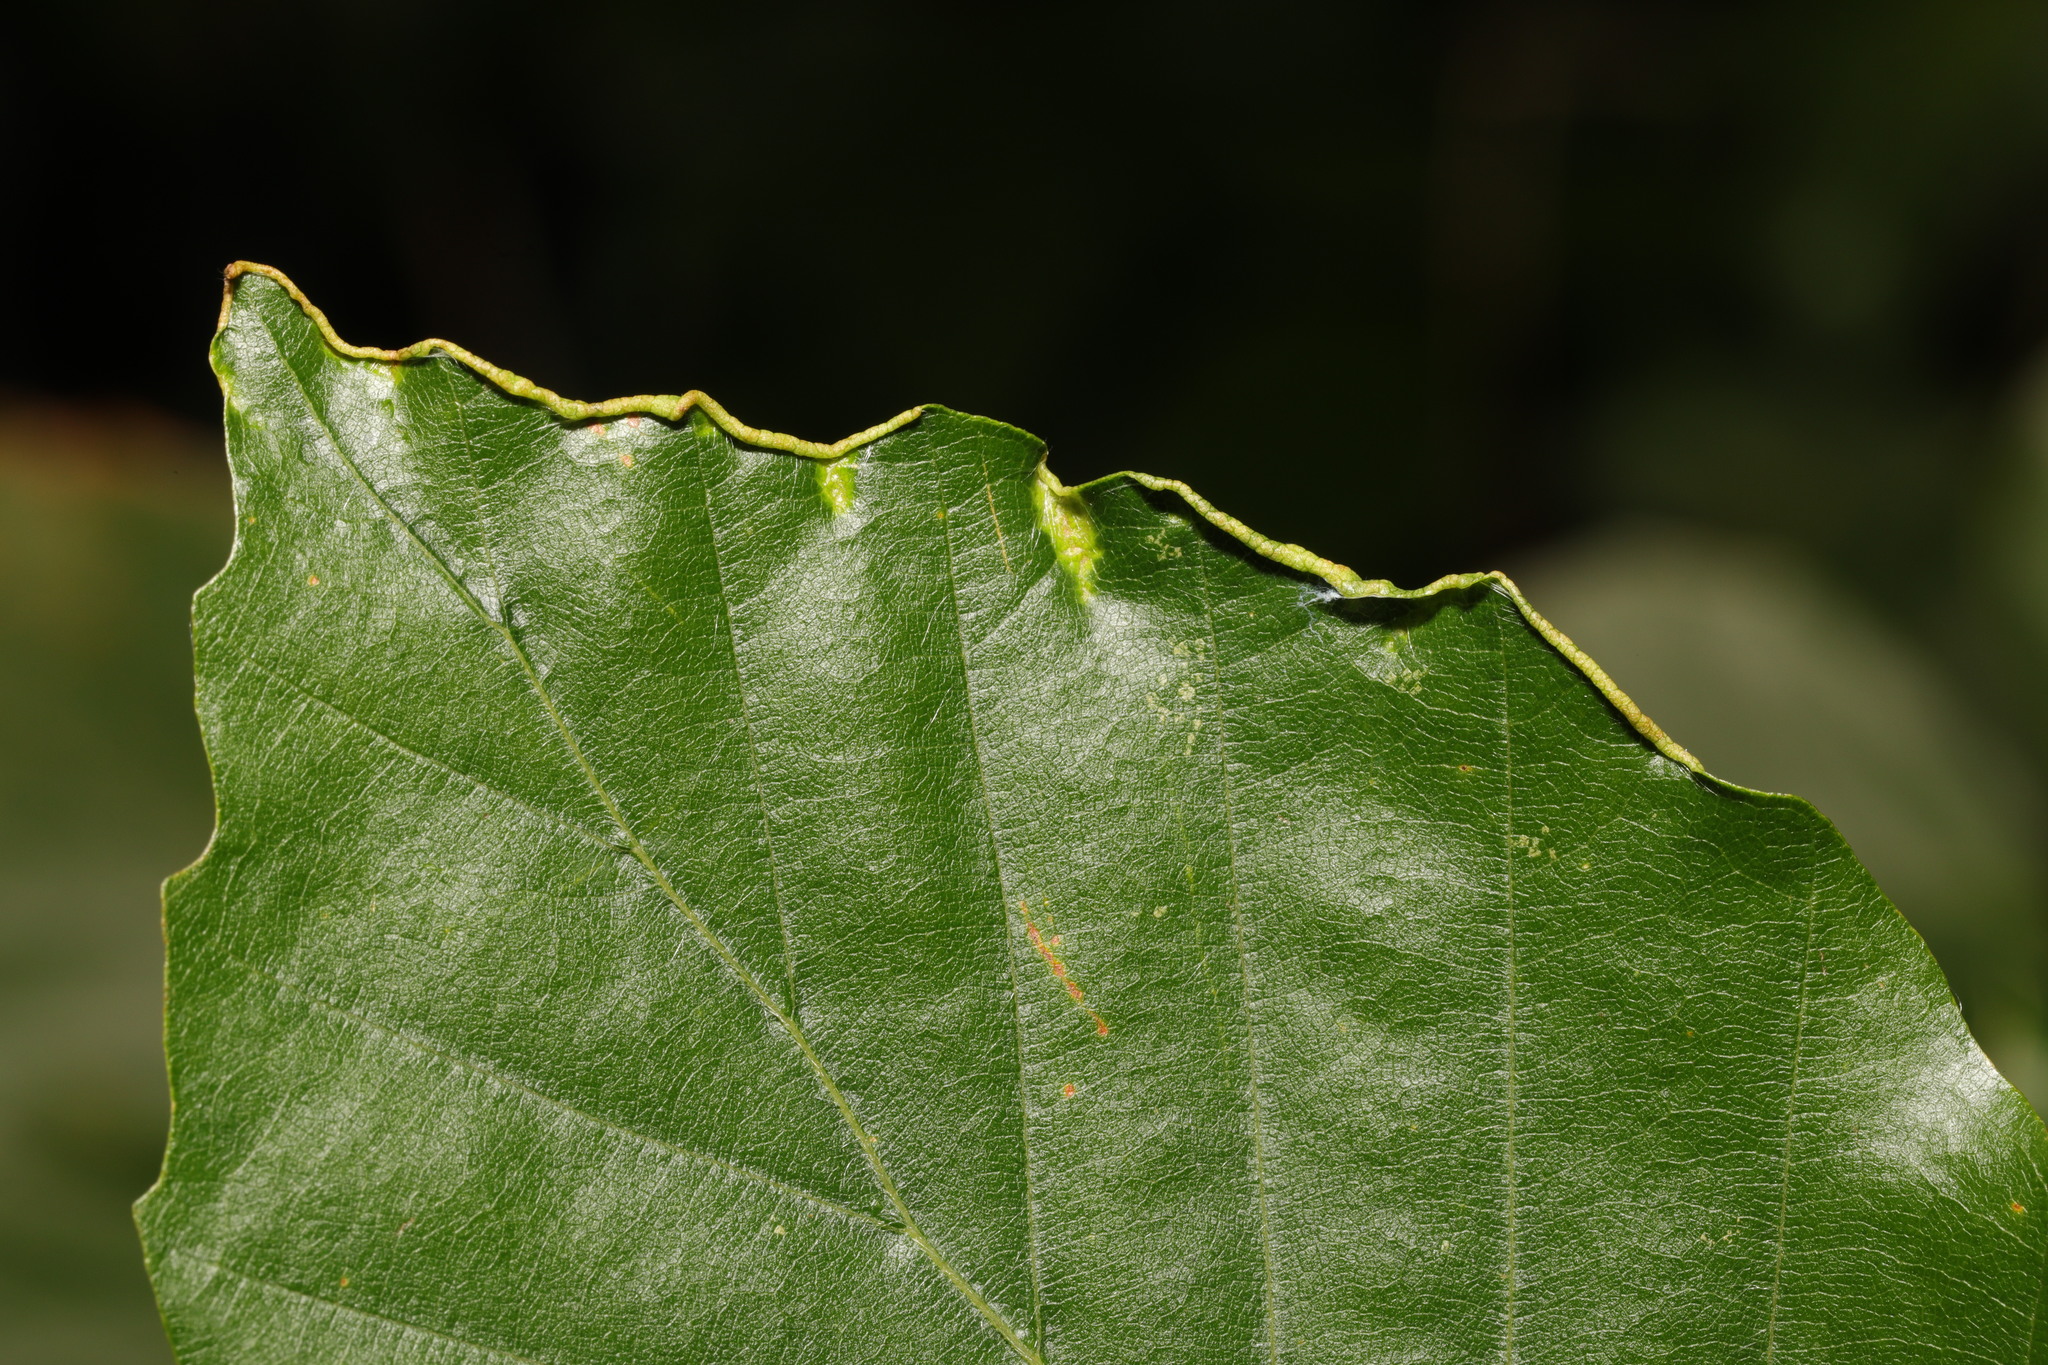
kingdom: Animalia
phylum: Arthropoda
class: Arachnida
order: Trombidiformes
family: Eriophyidae
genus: Acalitus
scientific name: Acalitus stenaspis
